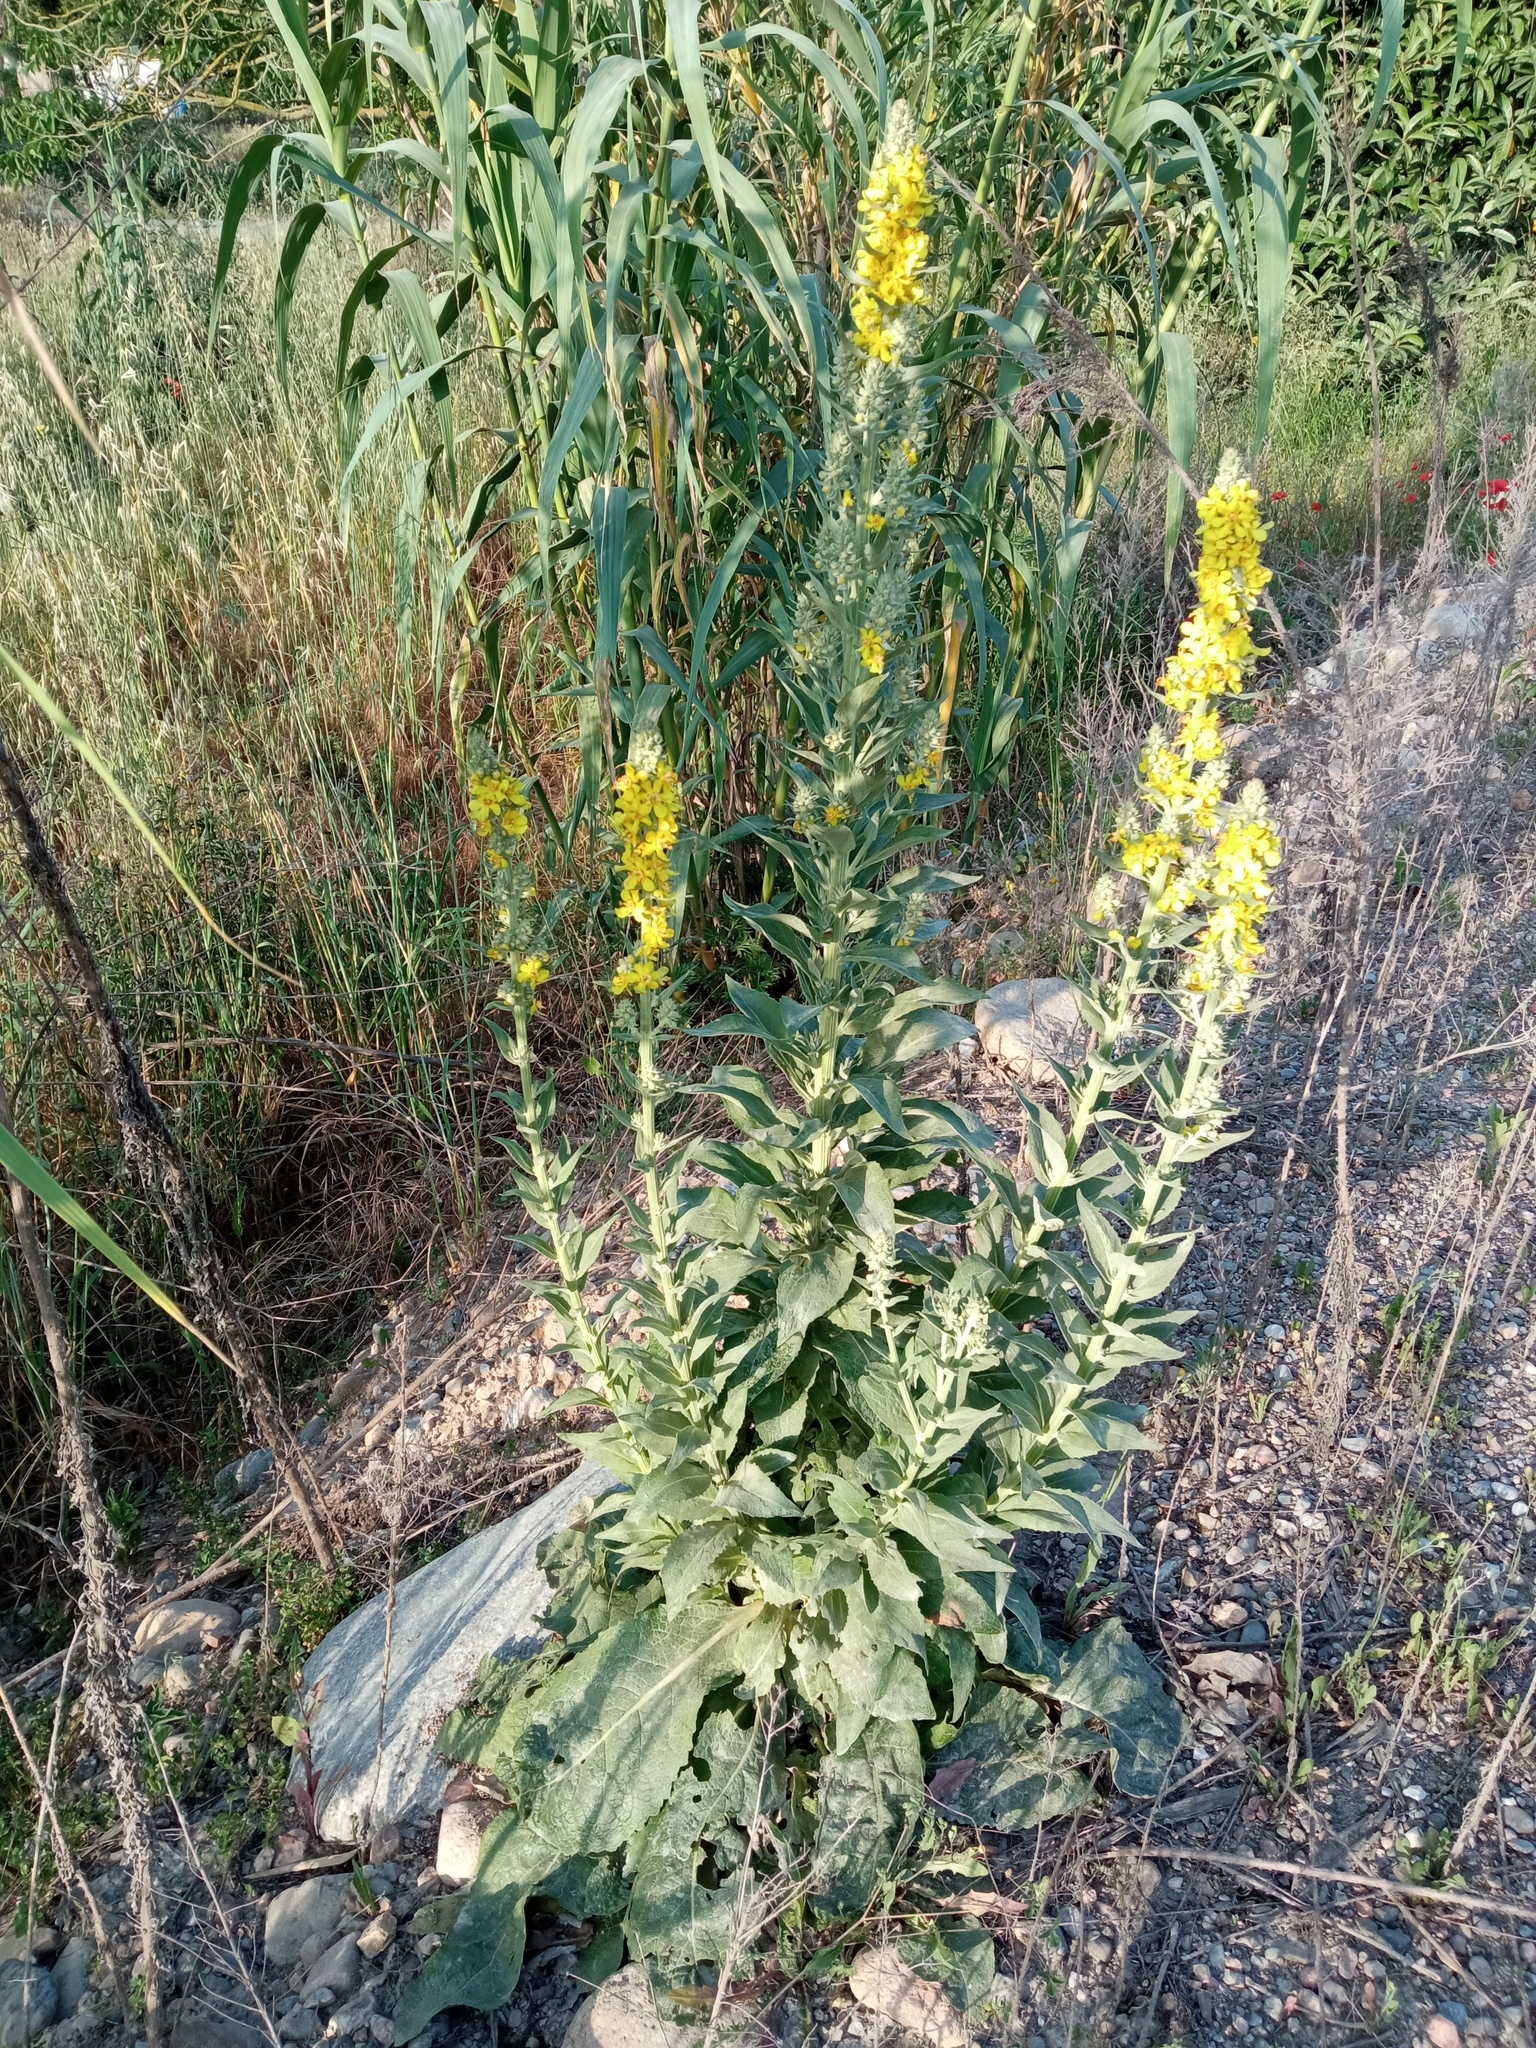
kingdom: Plantae
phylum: Tracheophyta
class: Magnoliopsida
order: Lamiales
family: Scrophulariaceae
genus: Verbascum
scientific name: Verbascum lychnitis
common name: White mullein
